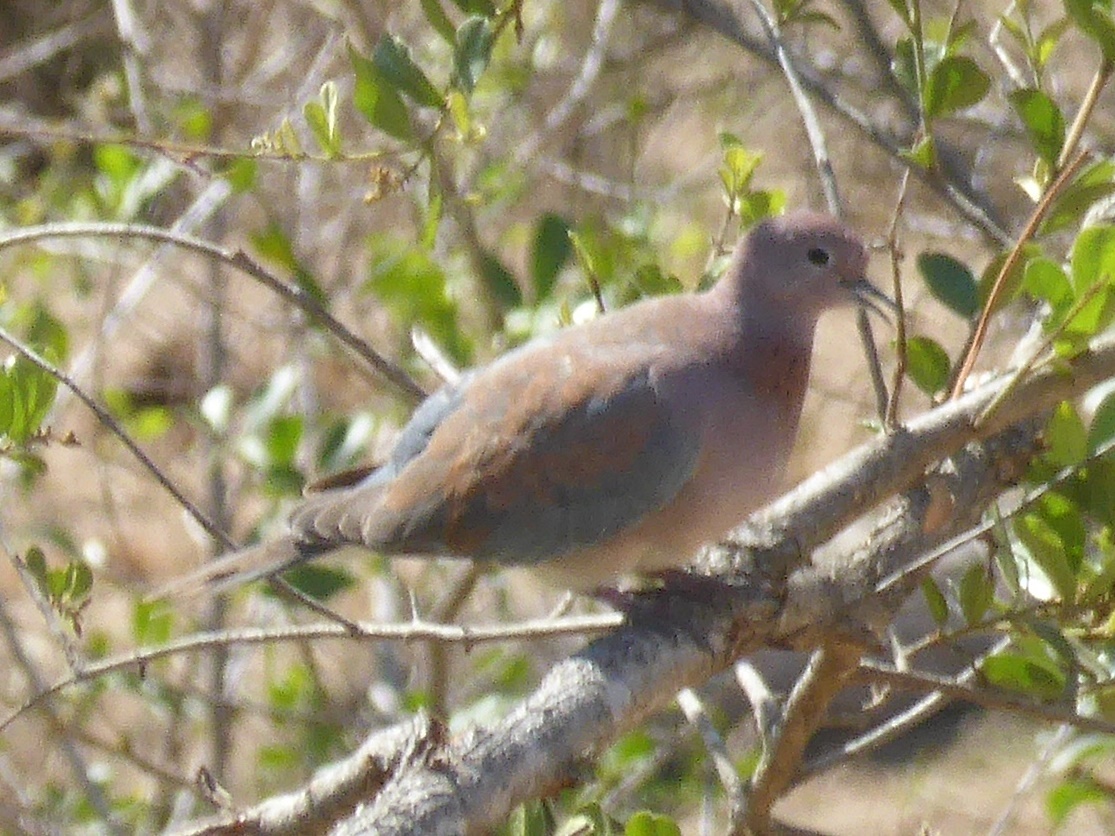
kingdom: Animalia
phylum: Chordata
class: Aves
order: Columbiformes
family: Columbidae
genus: Spilopelia
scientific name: Spilopelia senegalensis
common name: Laughing dove
